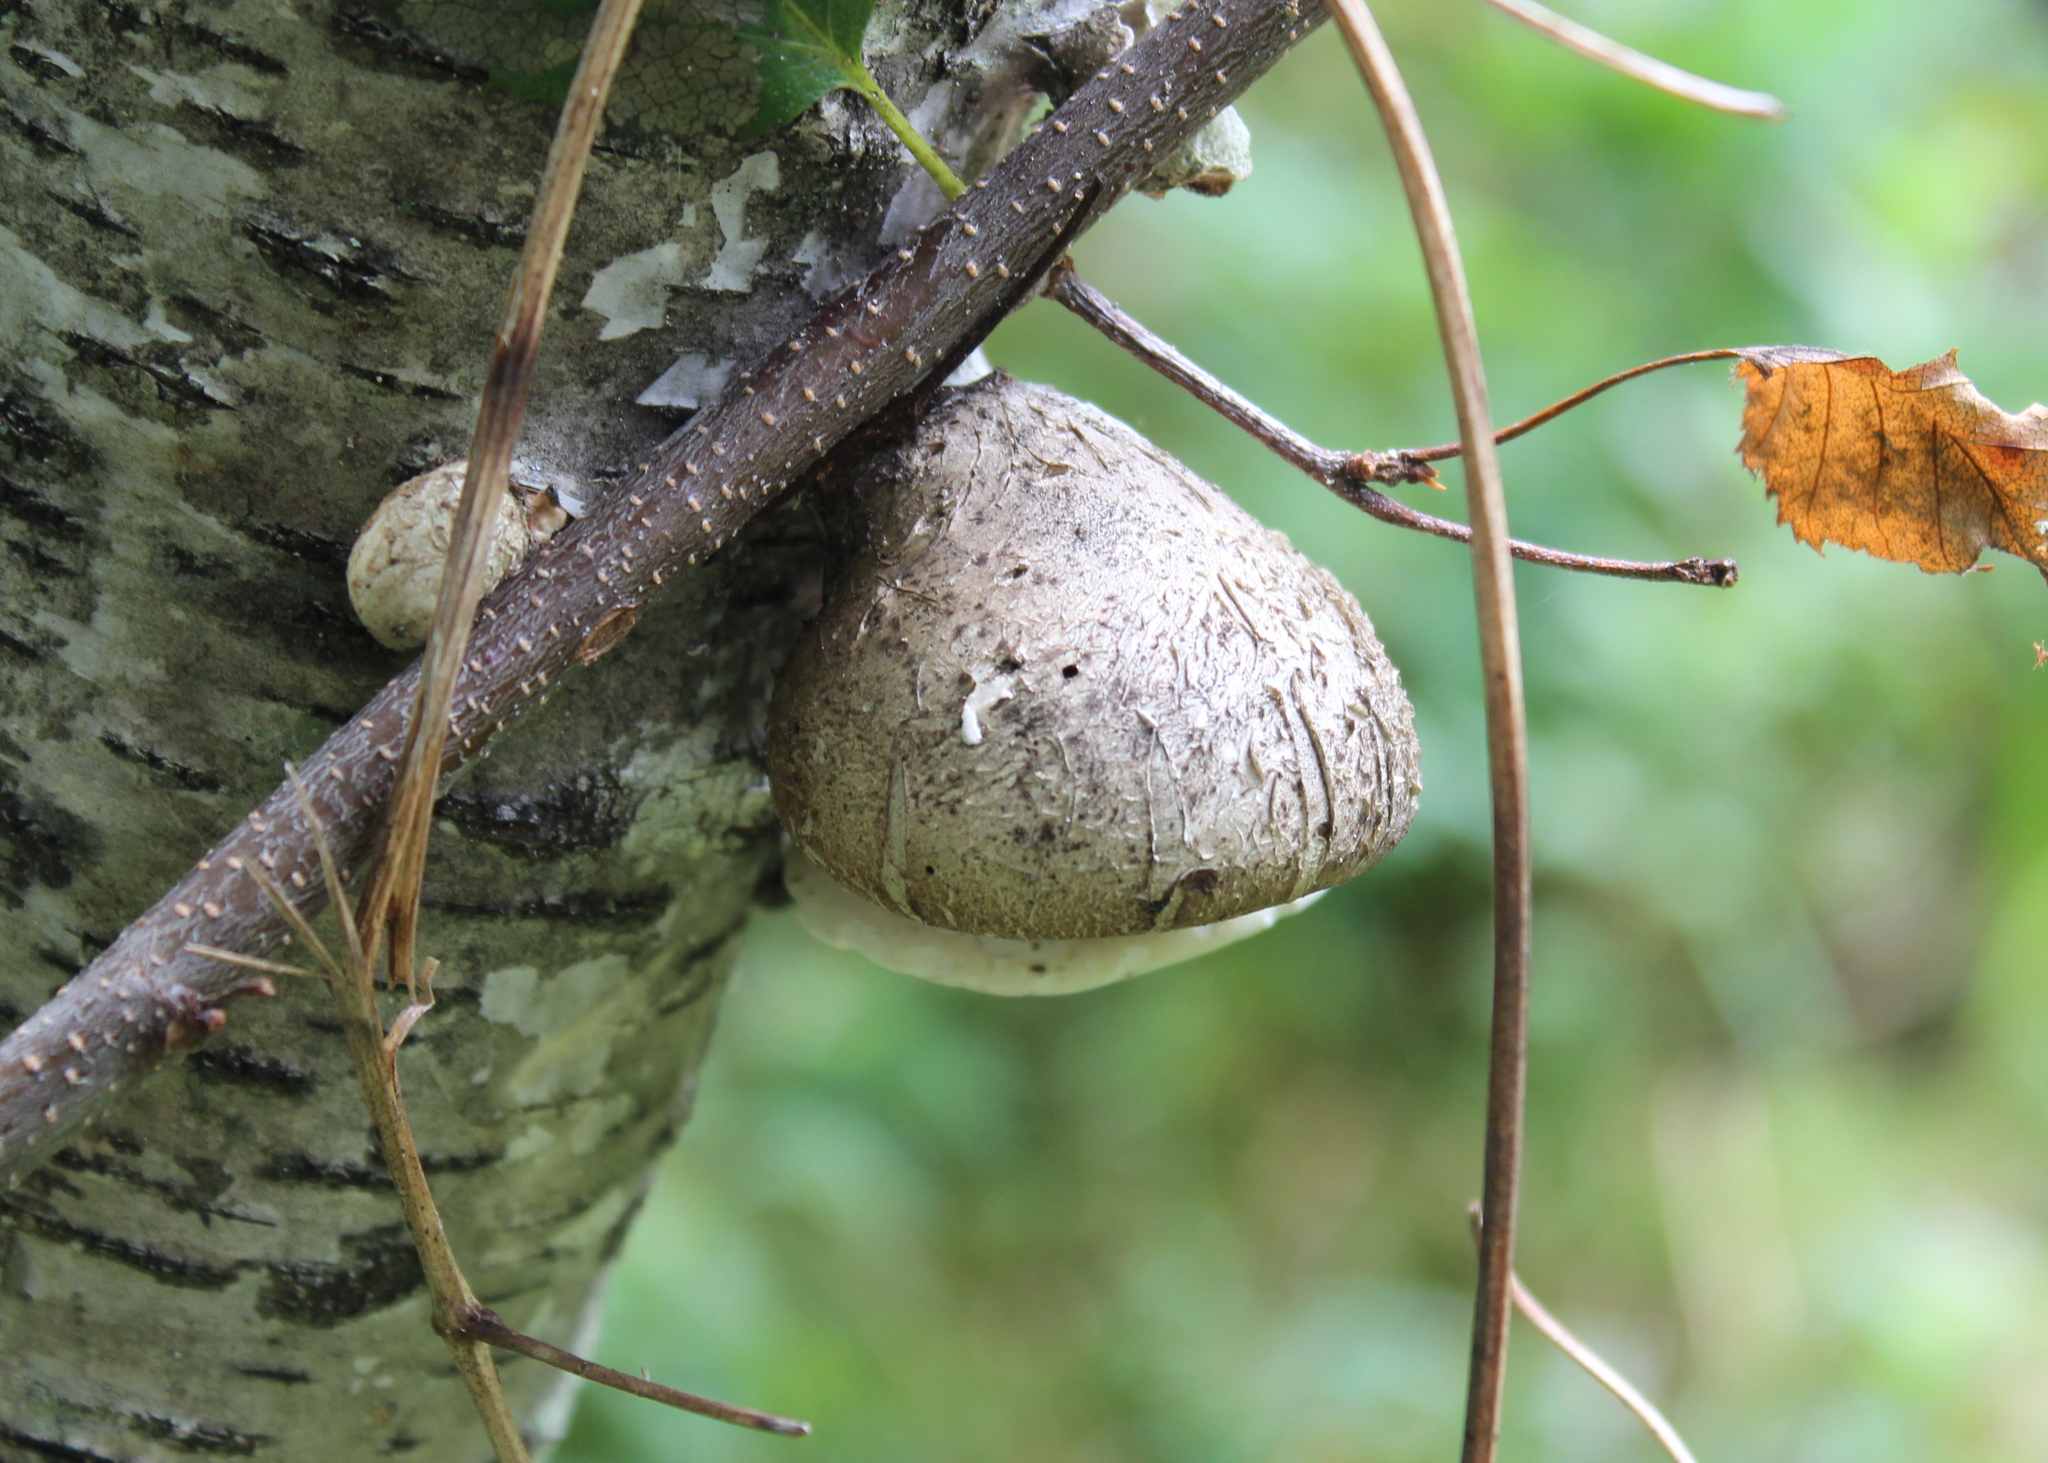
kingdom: Fungi
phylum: Basidiomycota
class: Agaricomycetes
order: Polyporales
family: Fomitopsidaceae
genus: Fomitopsis
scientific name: Fomitopsis betulina
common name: Birch polypore
